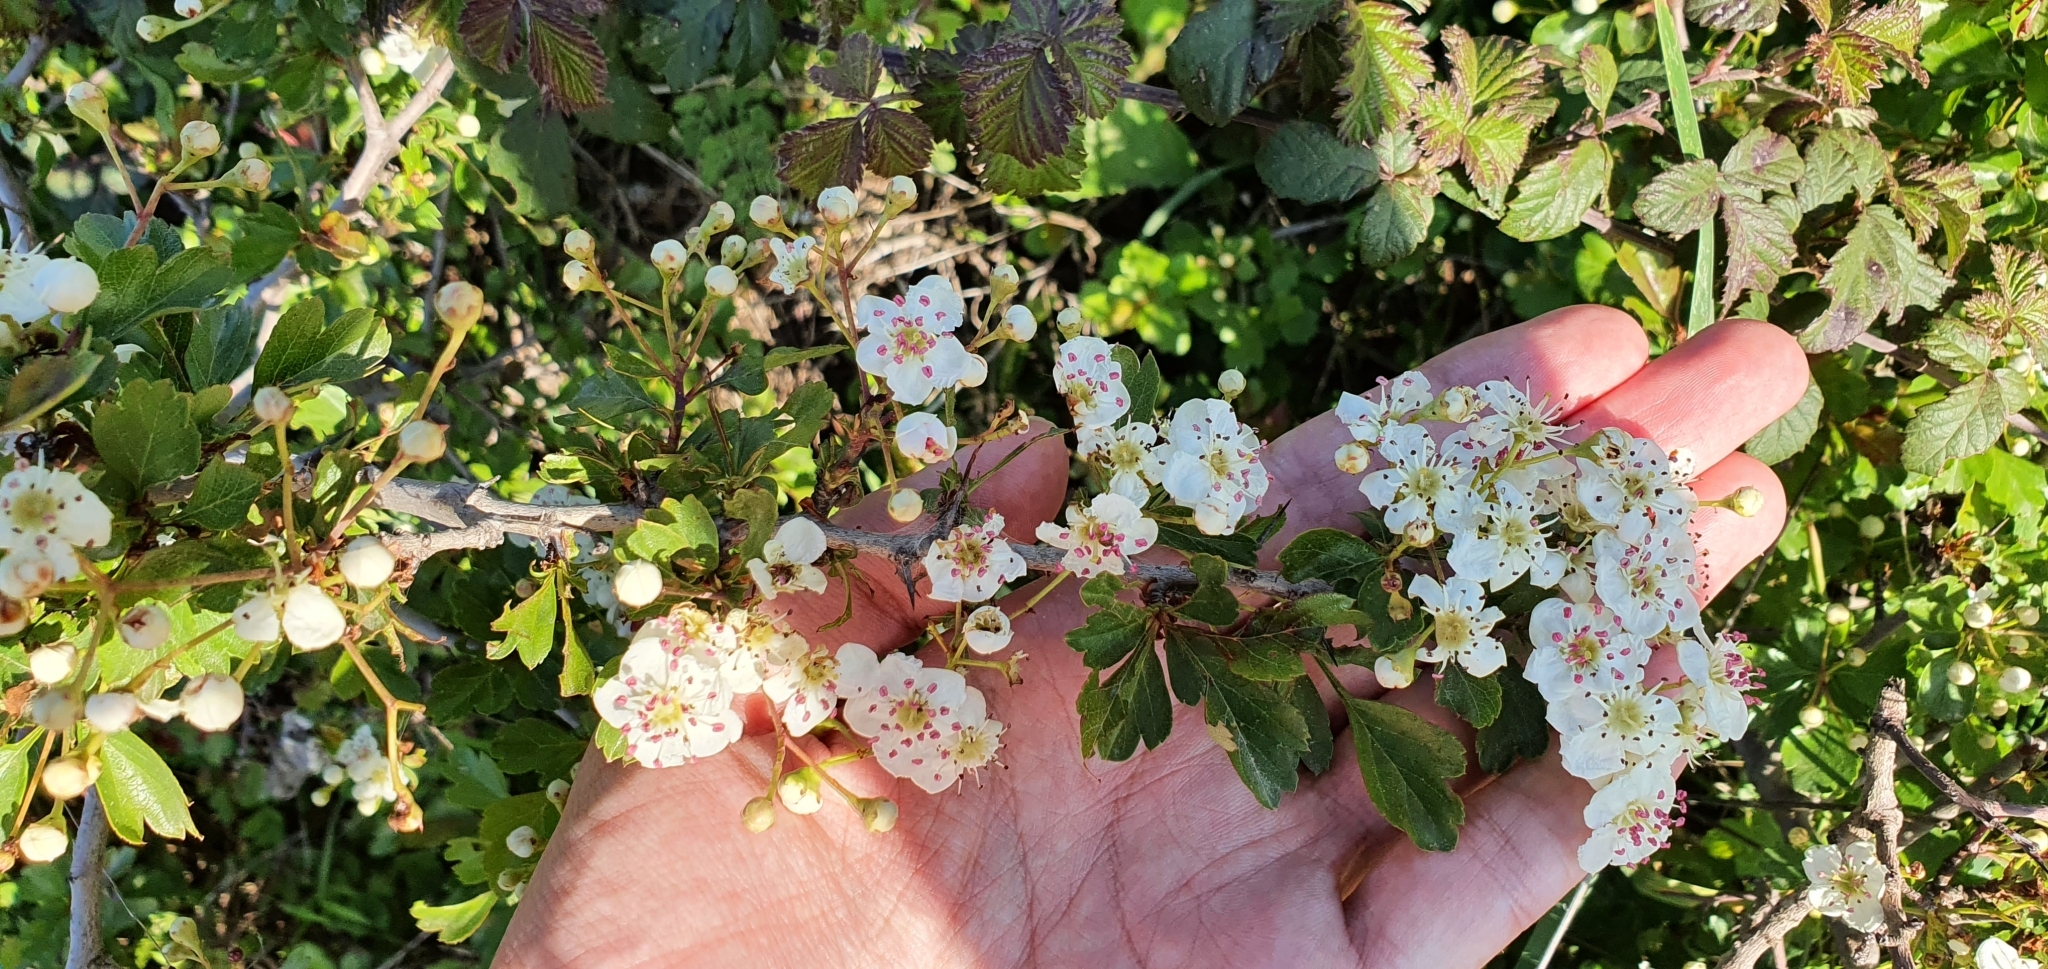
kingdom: Plantae
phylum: Tracheophyta
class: Magnoliopsida
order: Rosales
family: Rosaceae
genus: Crataegus
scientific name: Crataegus monogyna
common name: Hawthorn
